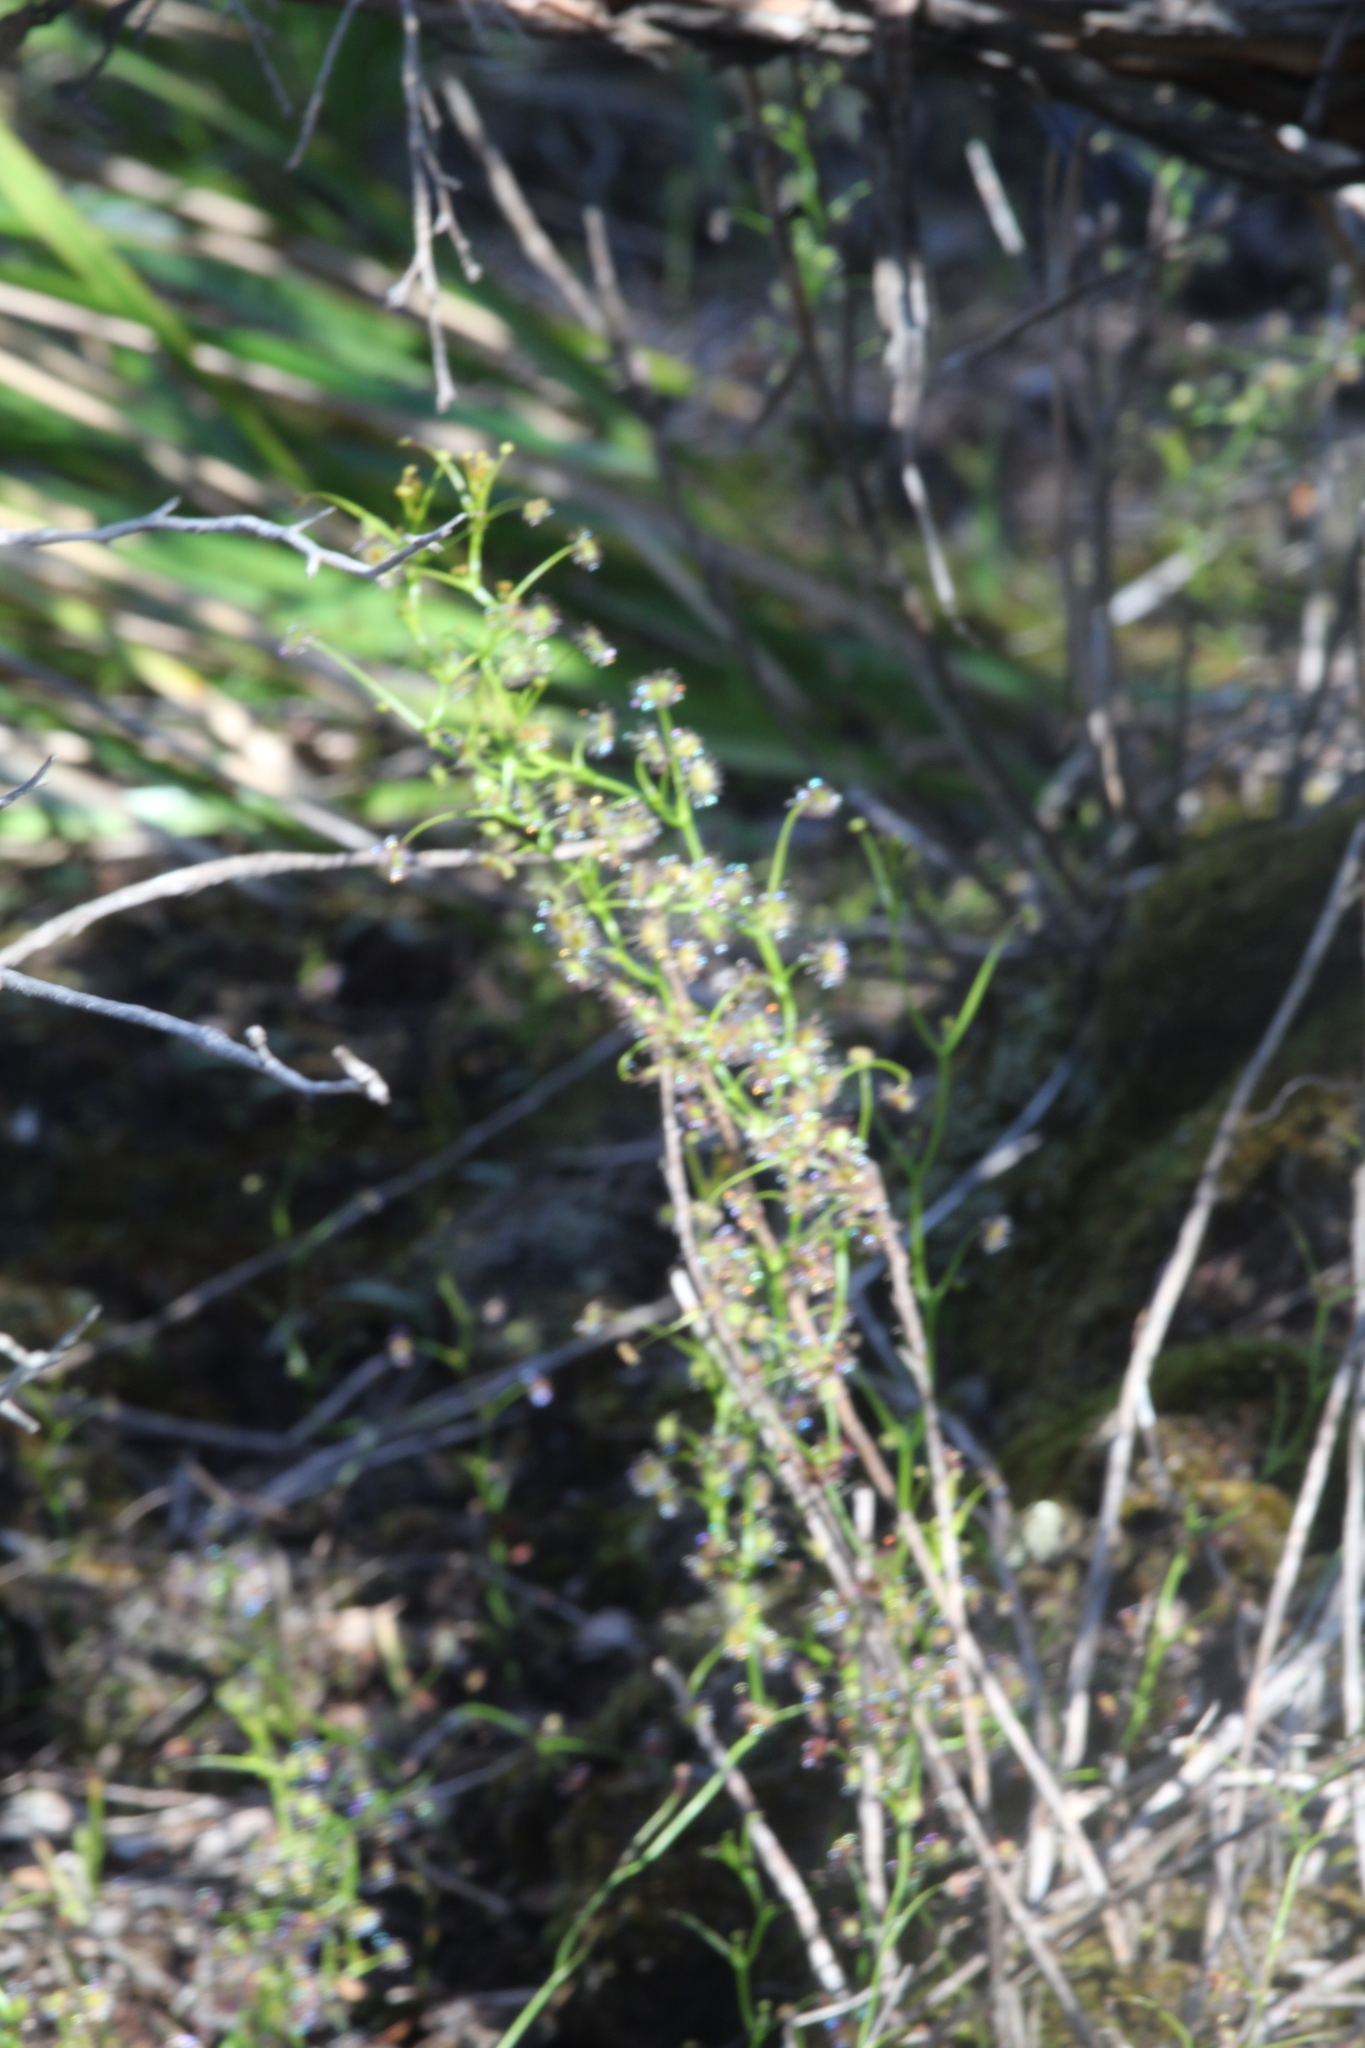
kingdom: Plantae
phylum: Tracheophyta
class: Magnoliopsida
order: Caryophyllales
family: Droseraceae
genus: Drosera
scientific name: Drosera erythrogyne
